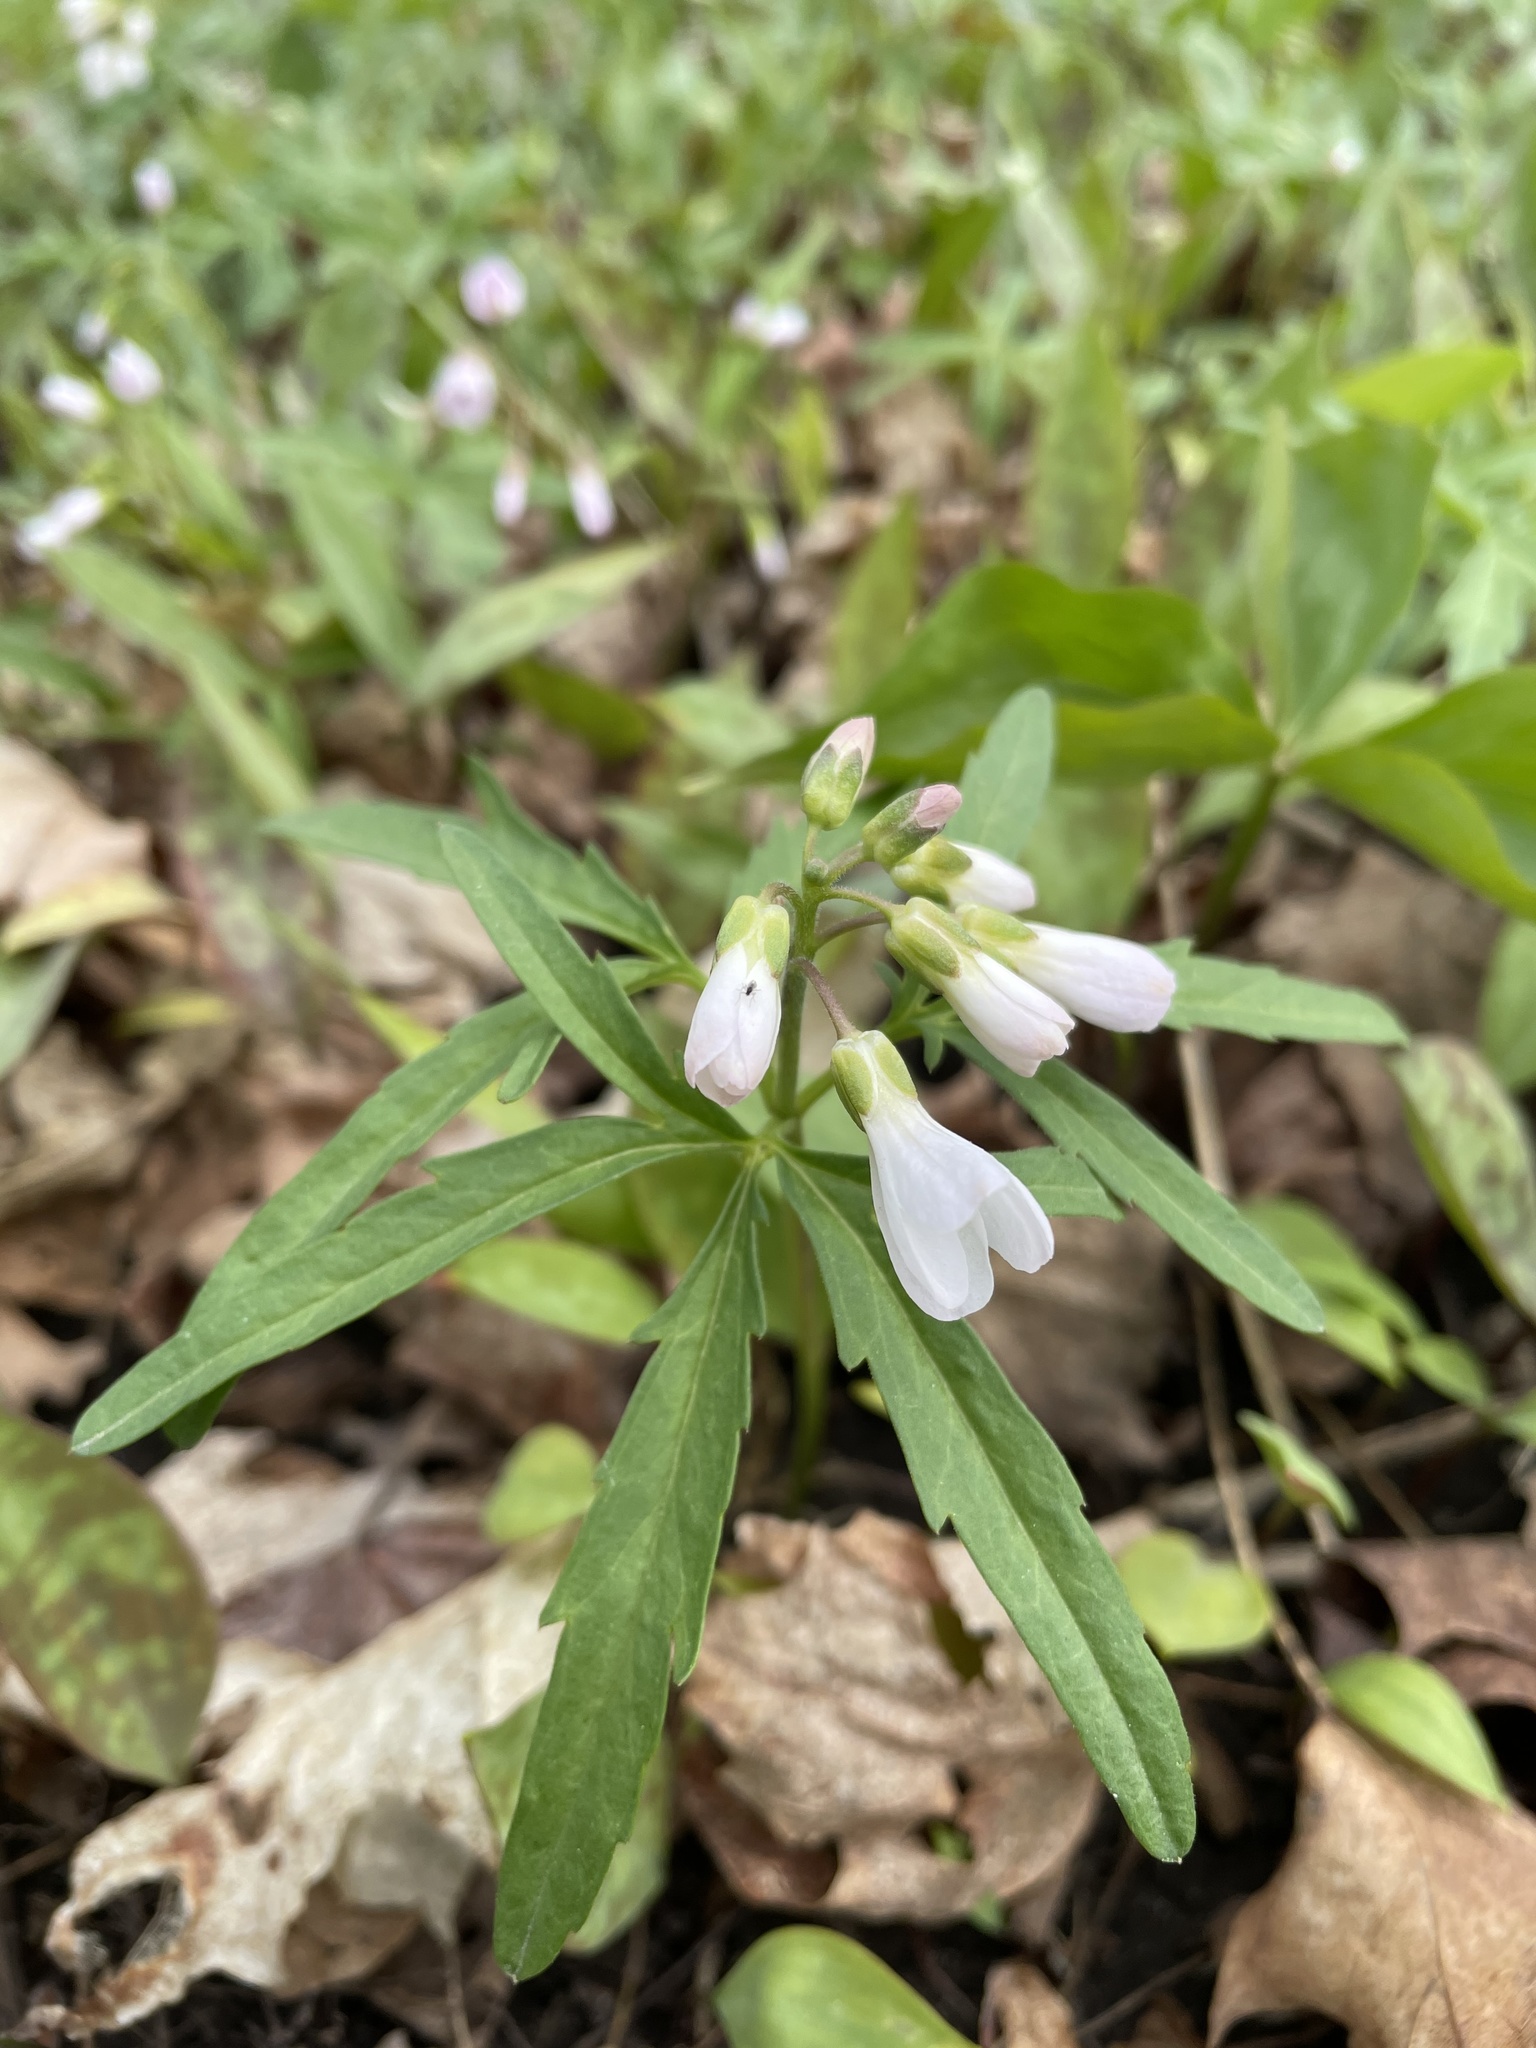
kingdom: Plantae
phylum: Tracheophyta
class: Magnoliopsida
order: Brassicales
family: Brassicaceae
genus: Cardamine
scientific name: Cardamine concatenata
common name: Cut-leaf toothcup
